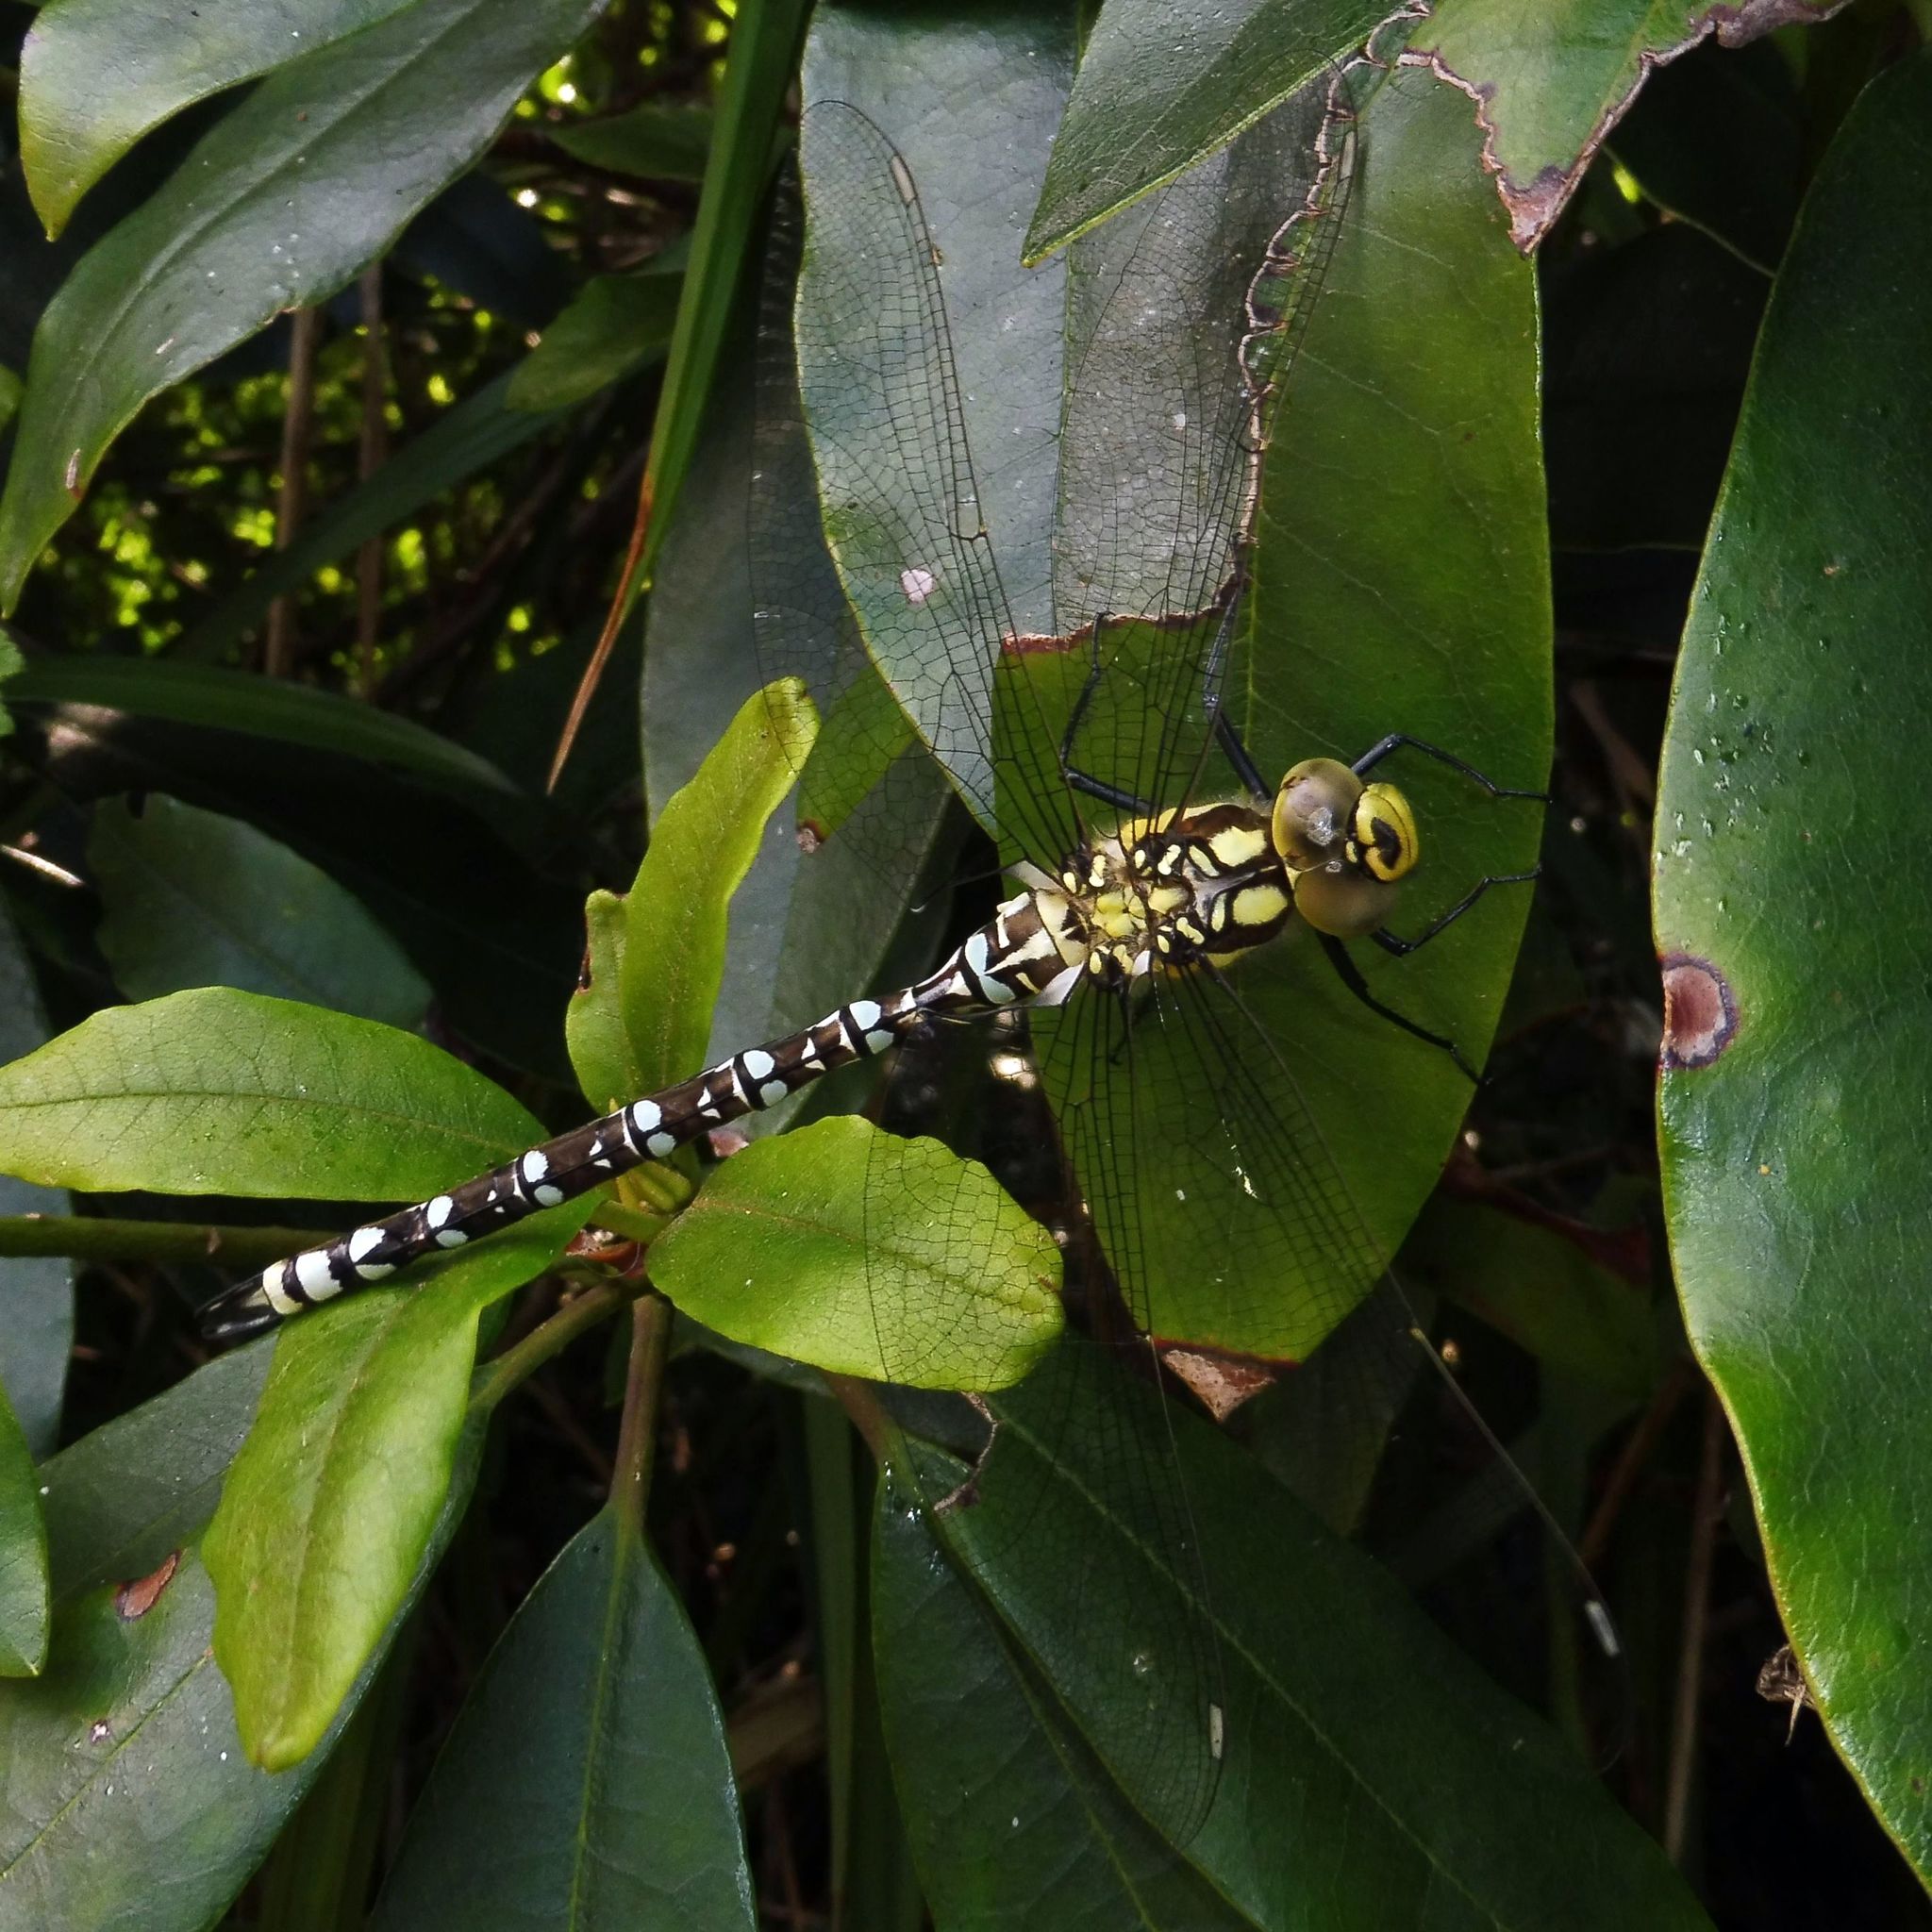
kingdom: Animalia
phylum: Arthropoda
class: Insecta
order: Odonata
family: Aeshnidae
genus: Aeshna
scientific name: Aeshna cyanea
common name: Southern hawker
